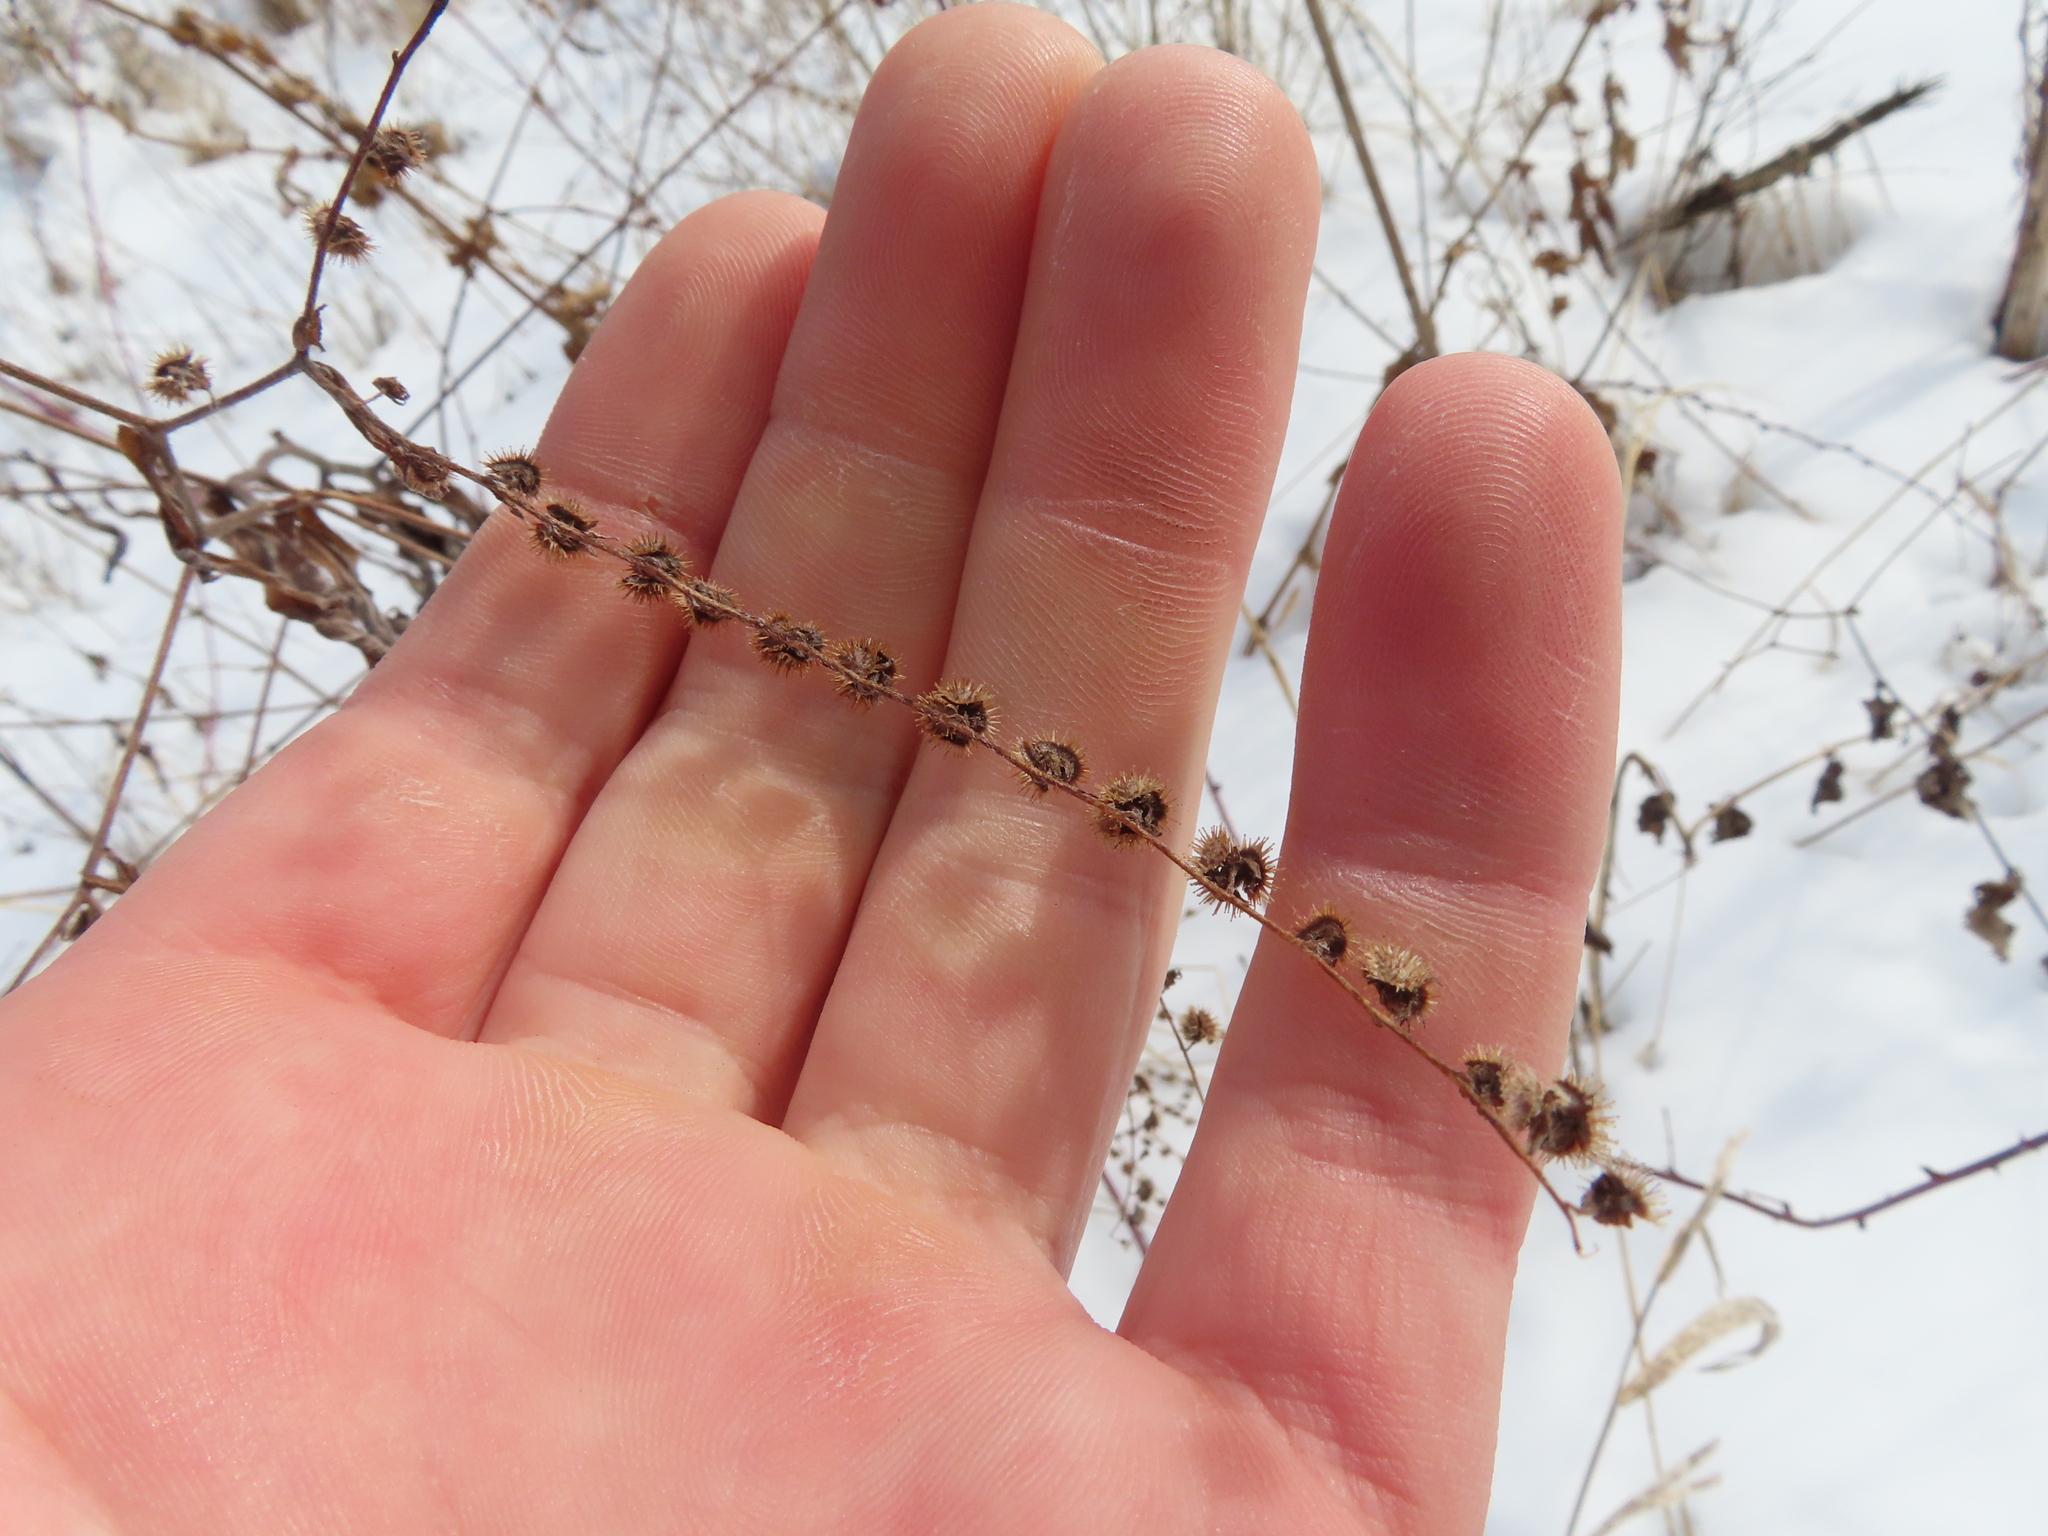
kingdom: Plantae
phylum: Tracheophyta
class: Magnoliopsida
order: Boraginales
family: Boraginaceae
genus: Hackelia
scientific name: Hackelia virginiana
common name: Beggar's-lice
